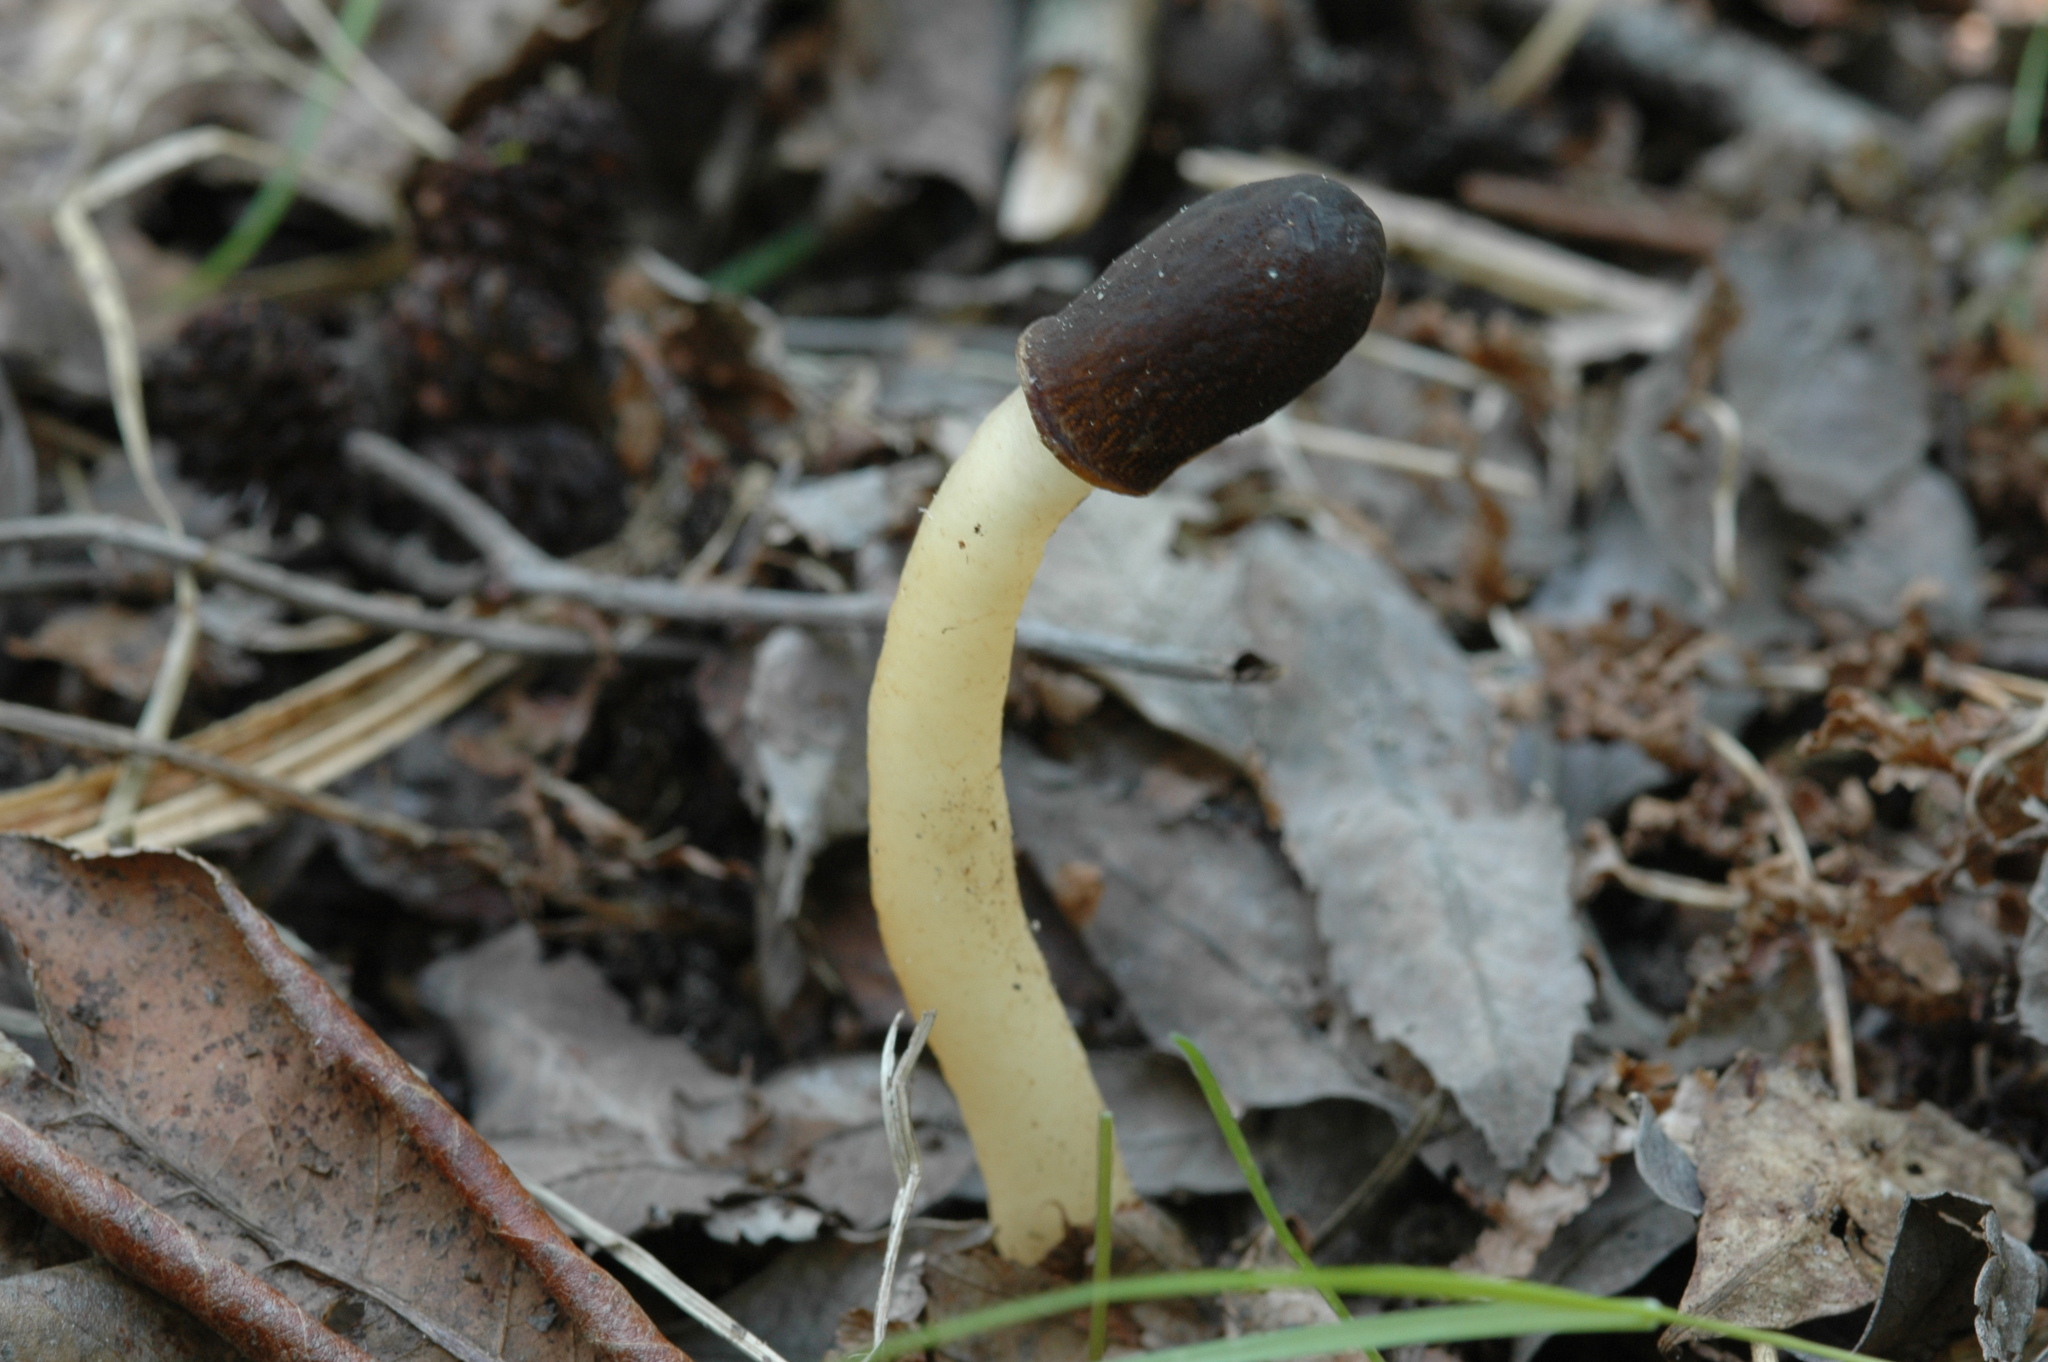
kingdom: Fungi
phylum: Ascomycota
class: Pezizomycetes
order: Pezizales
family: Morchellaceae
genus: Verpa
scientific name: Verpa conica
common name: Thimble morel
